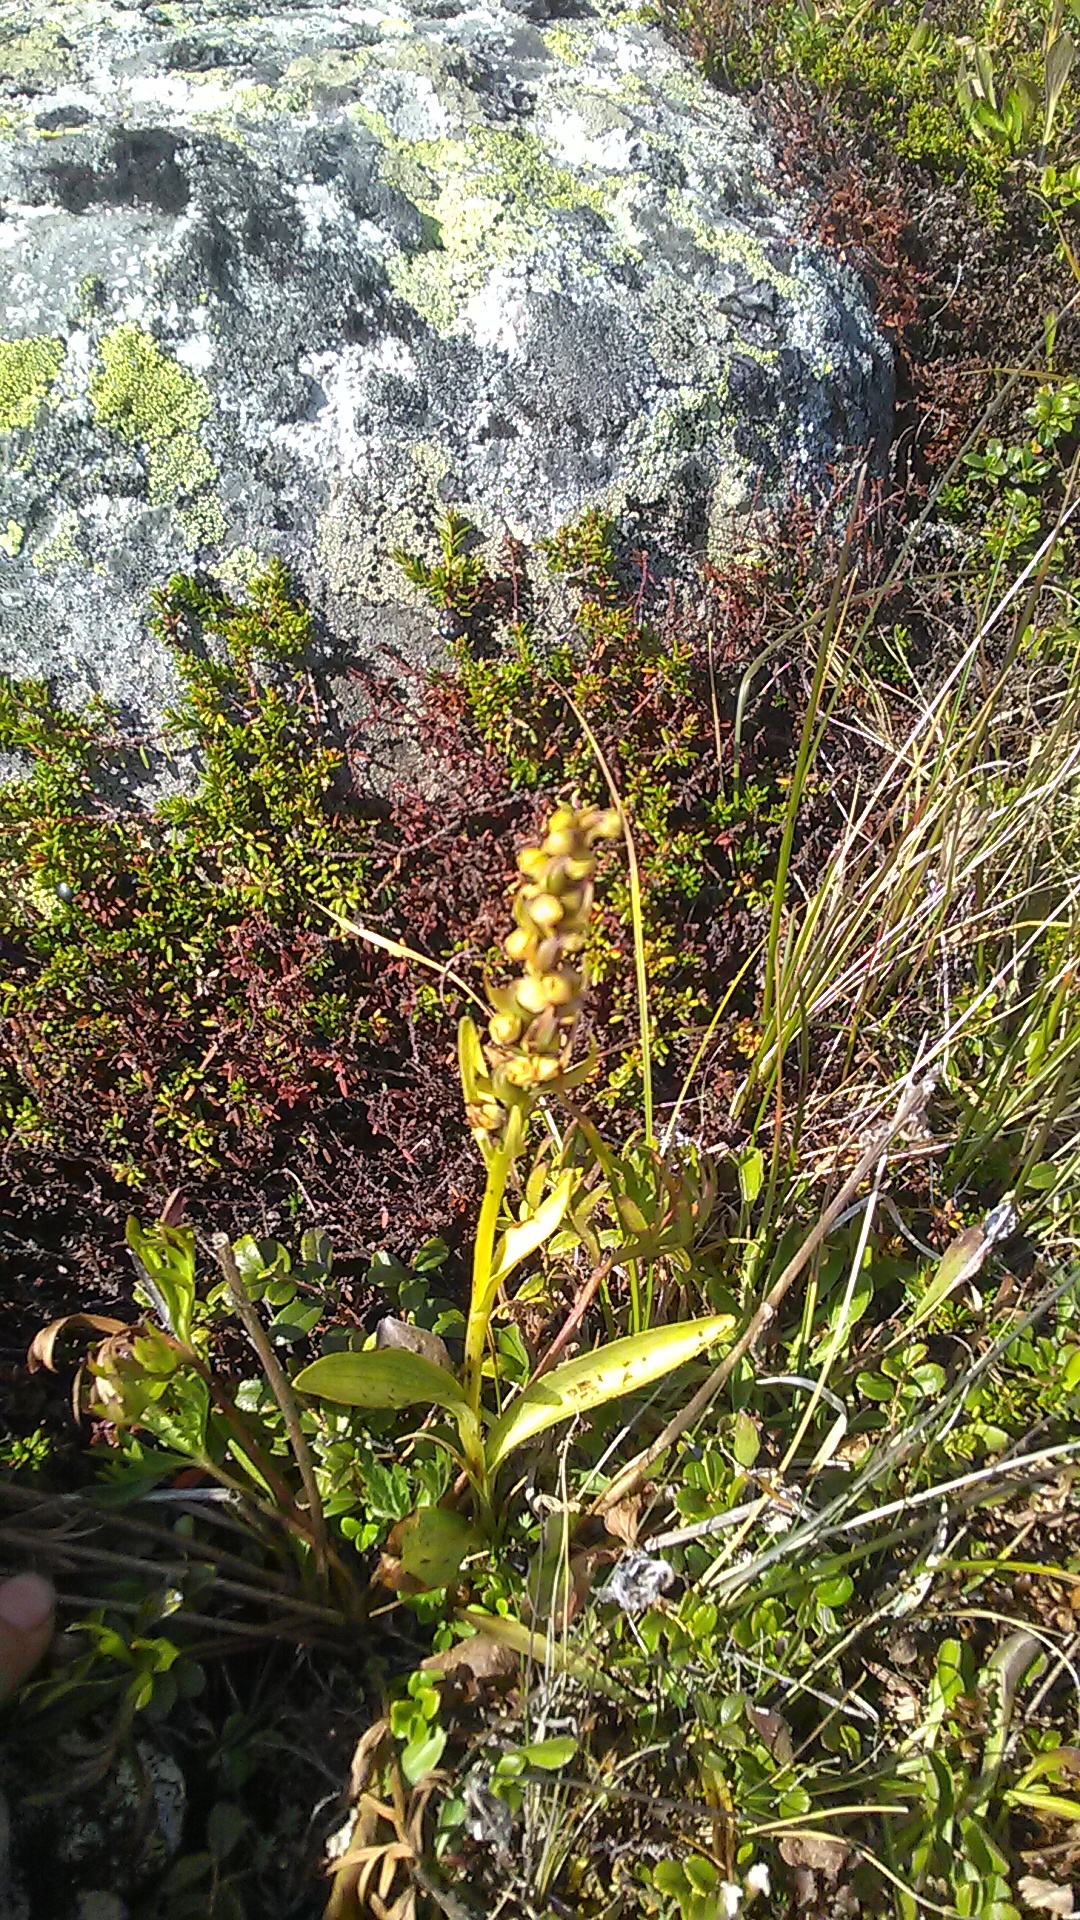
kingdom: Plantae
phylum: Tracheophyta
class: Liliopsida
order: Asparagales
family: Orchidaceae
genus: Dactylorhiza
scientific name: Dactylorhiza viridis
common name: Longbract frog orchid
